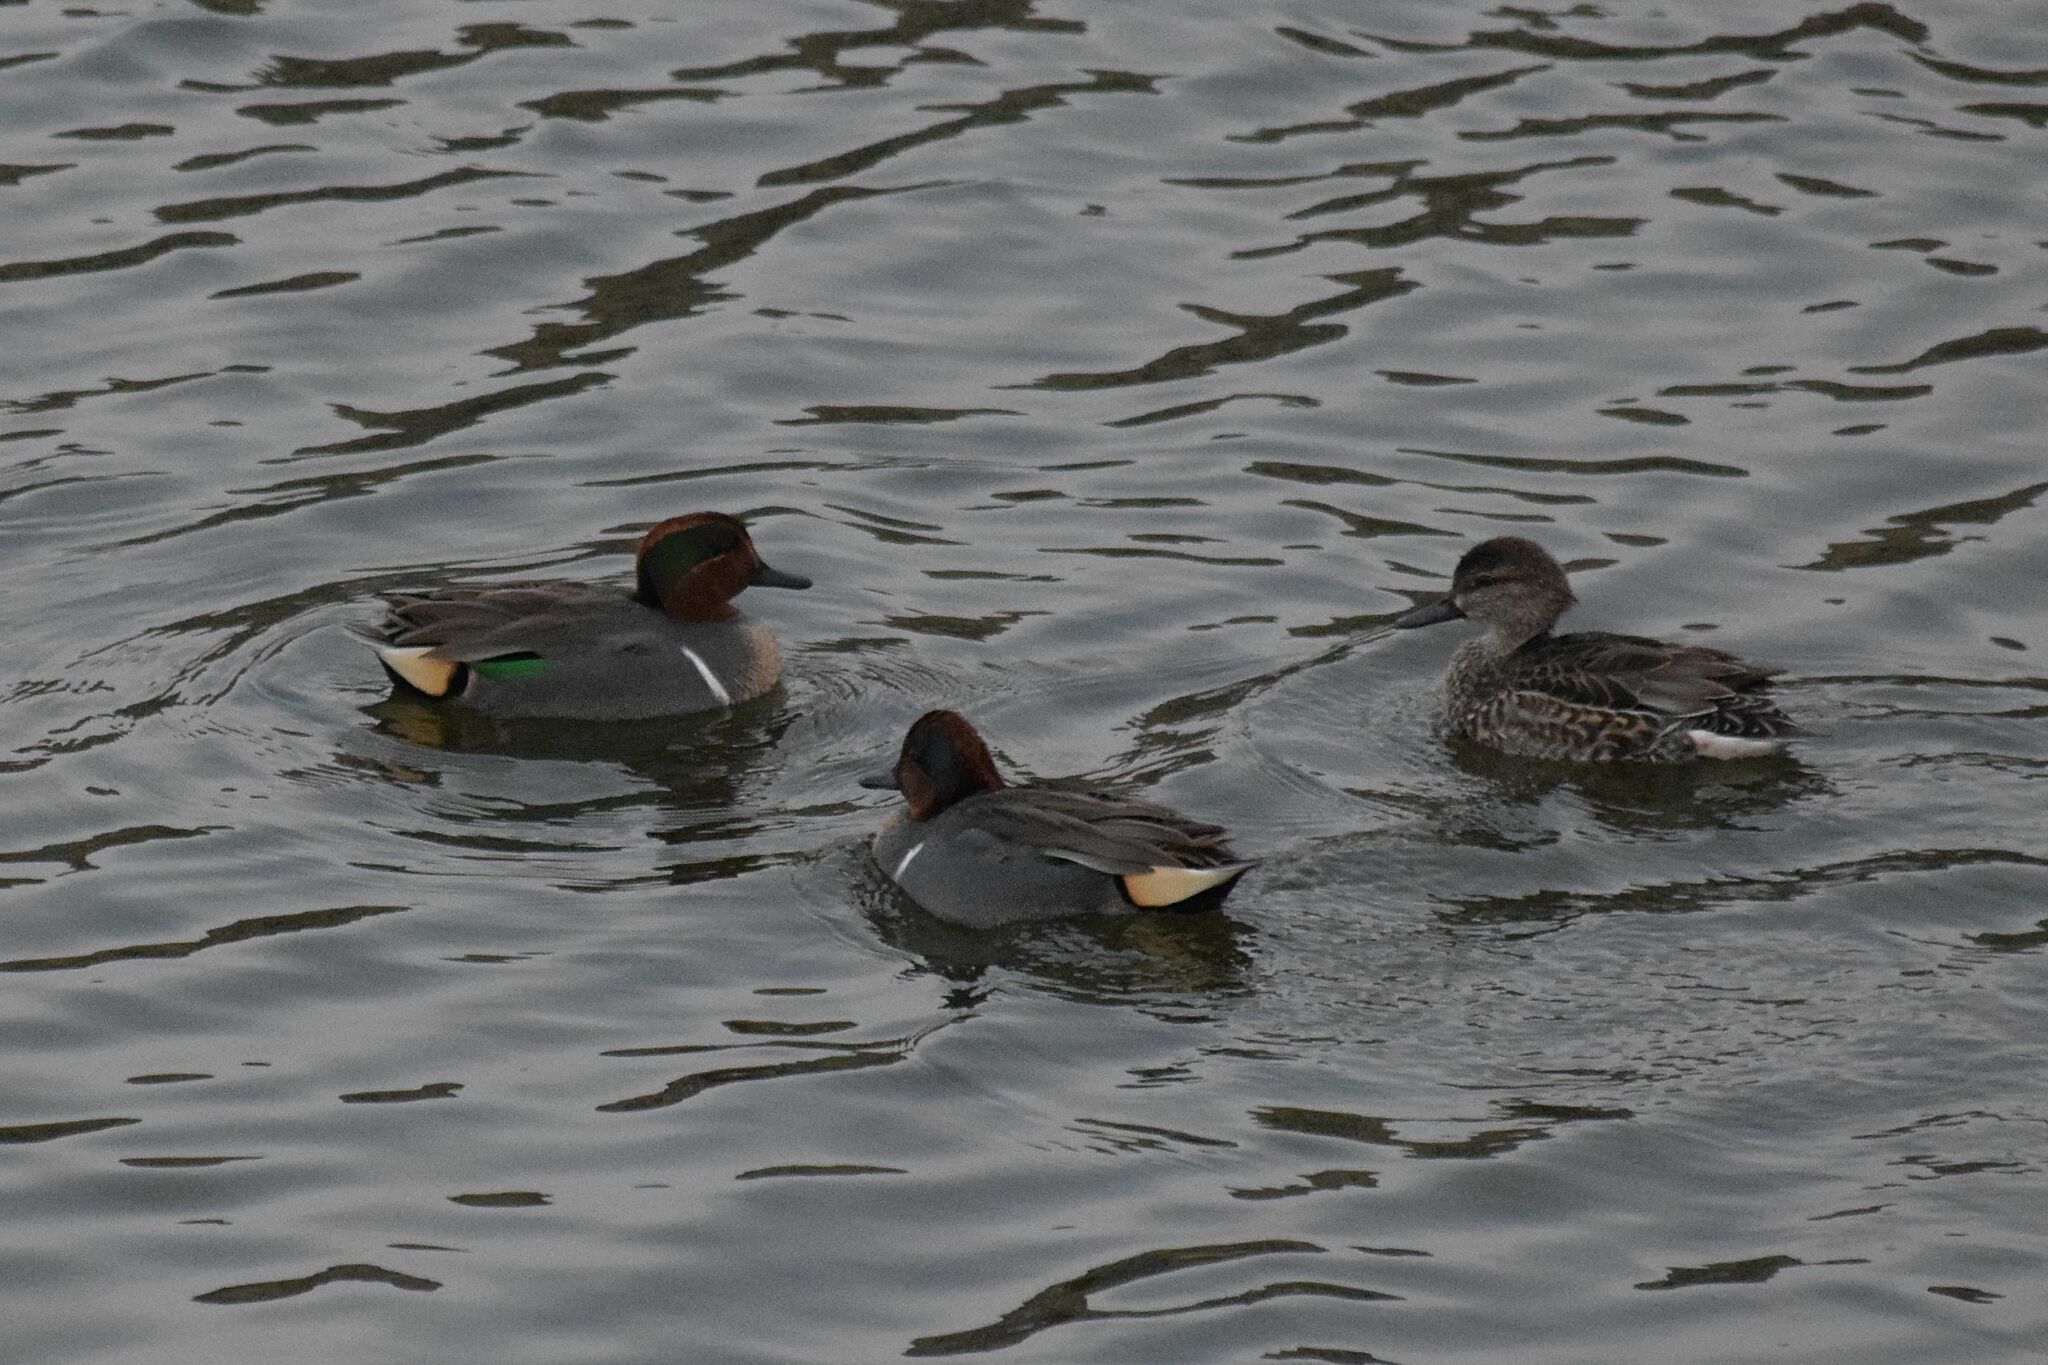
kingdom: Animalia
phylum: Chordata
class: Aves
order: Anseriformes
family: Anatidae
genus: Anas
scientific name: Anas crecca
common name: Eurasian teal
